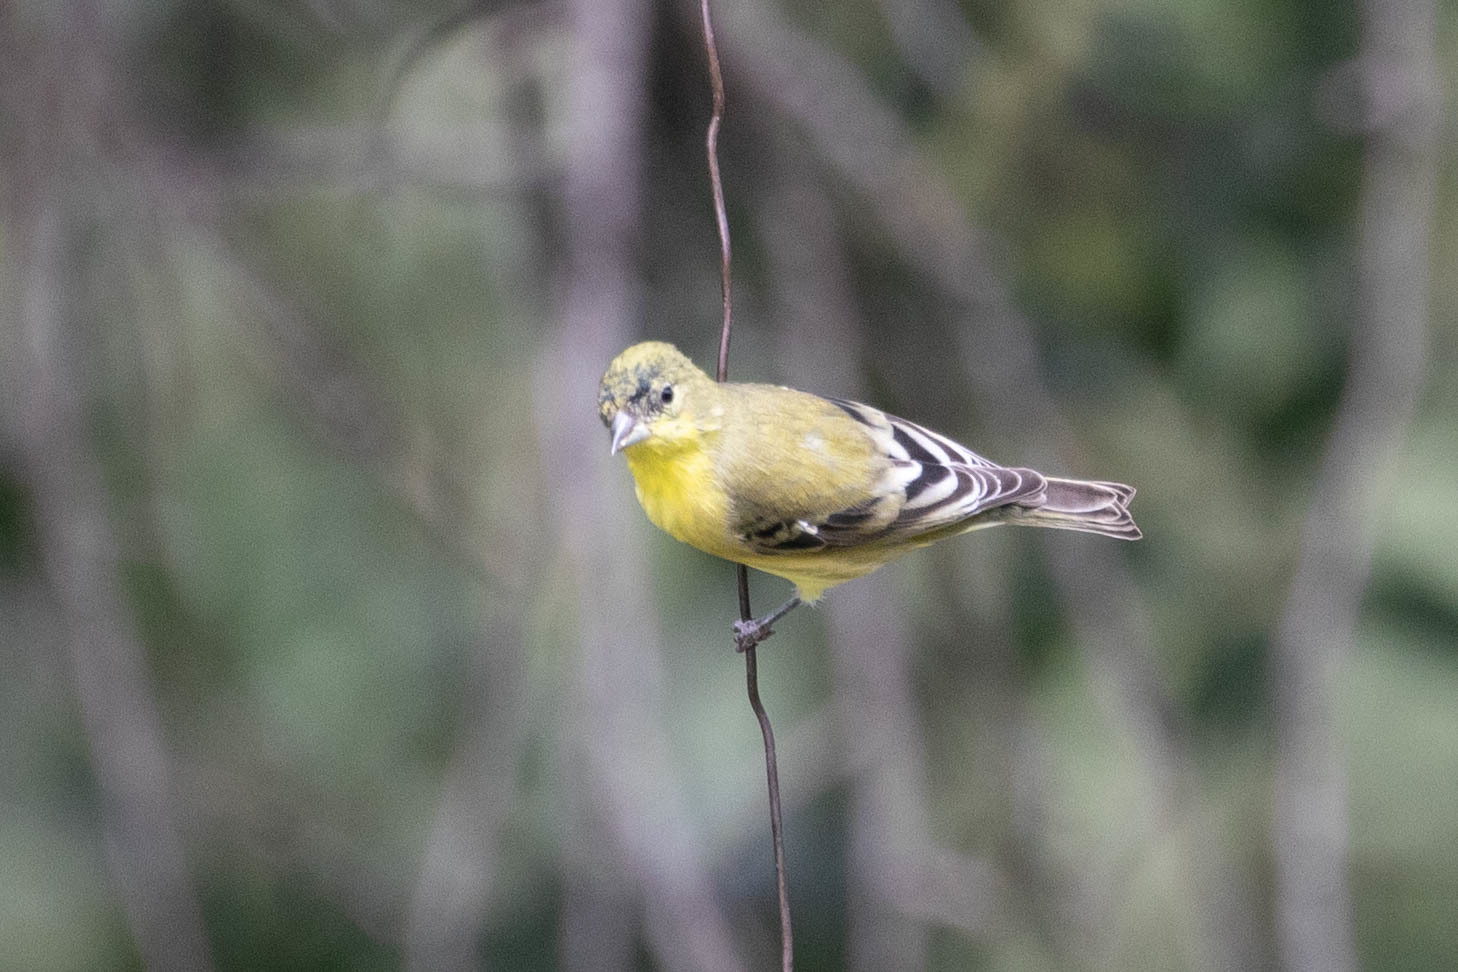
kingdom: Animalia
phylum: Chordata
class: Aves
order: Passeriformes
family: Fringillidae
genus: Spinus
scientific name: Spinus psaltria
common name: Lesser goldfinch
